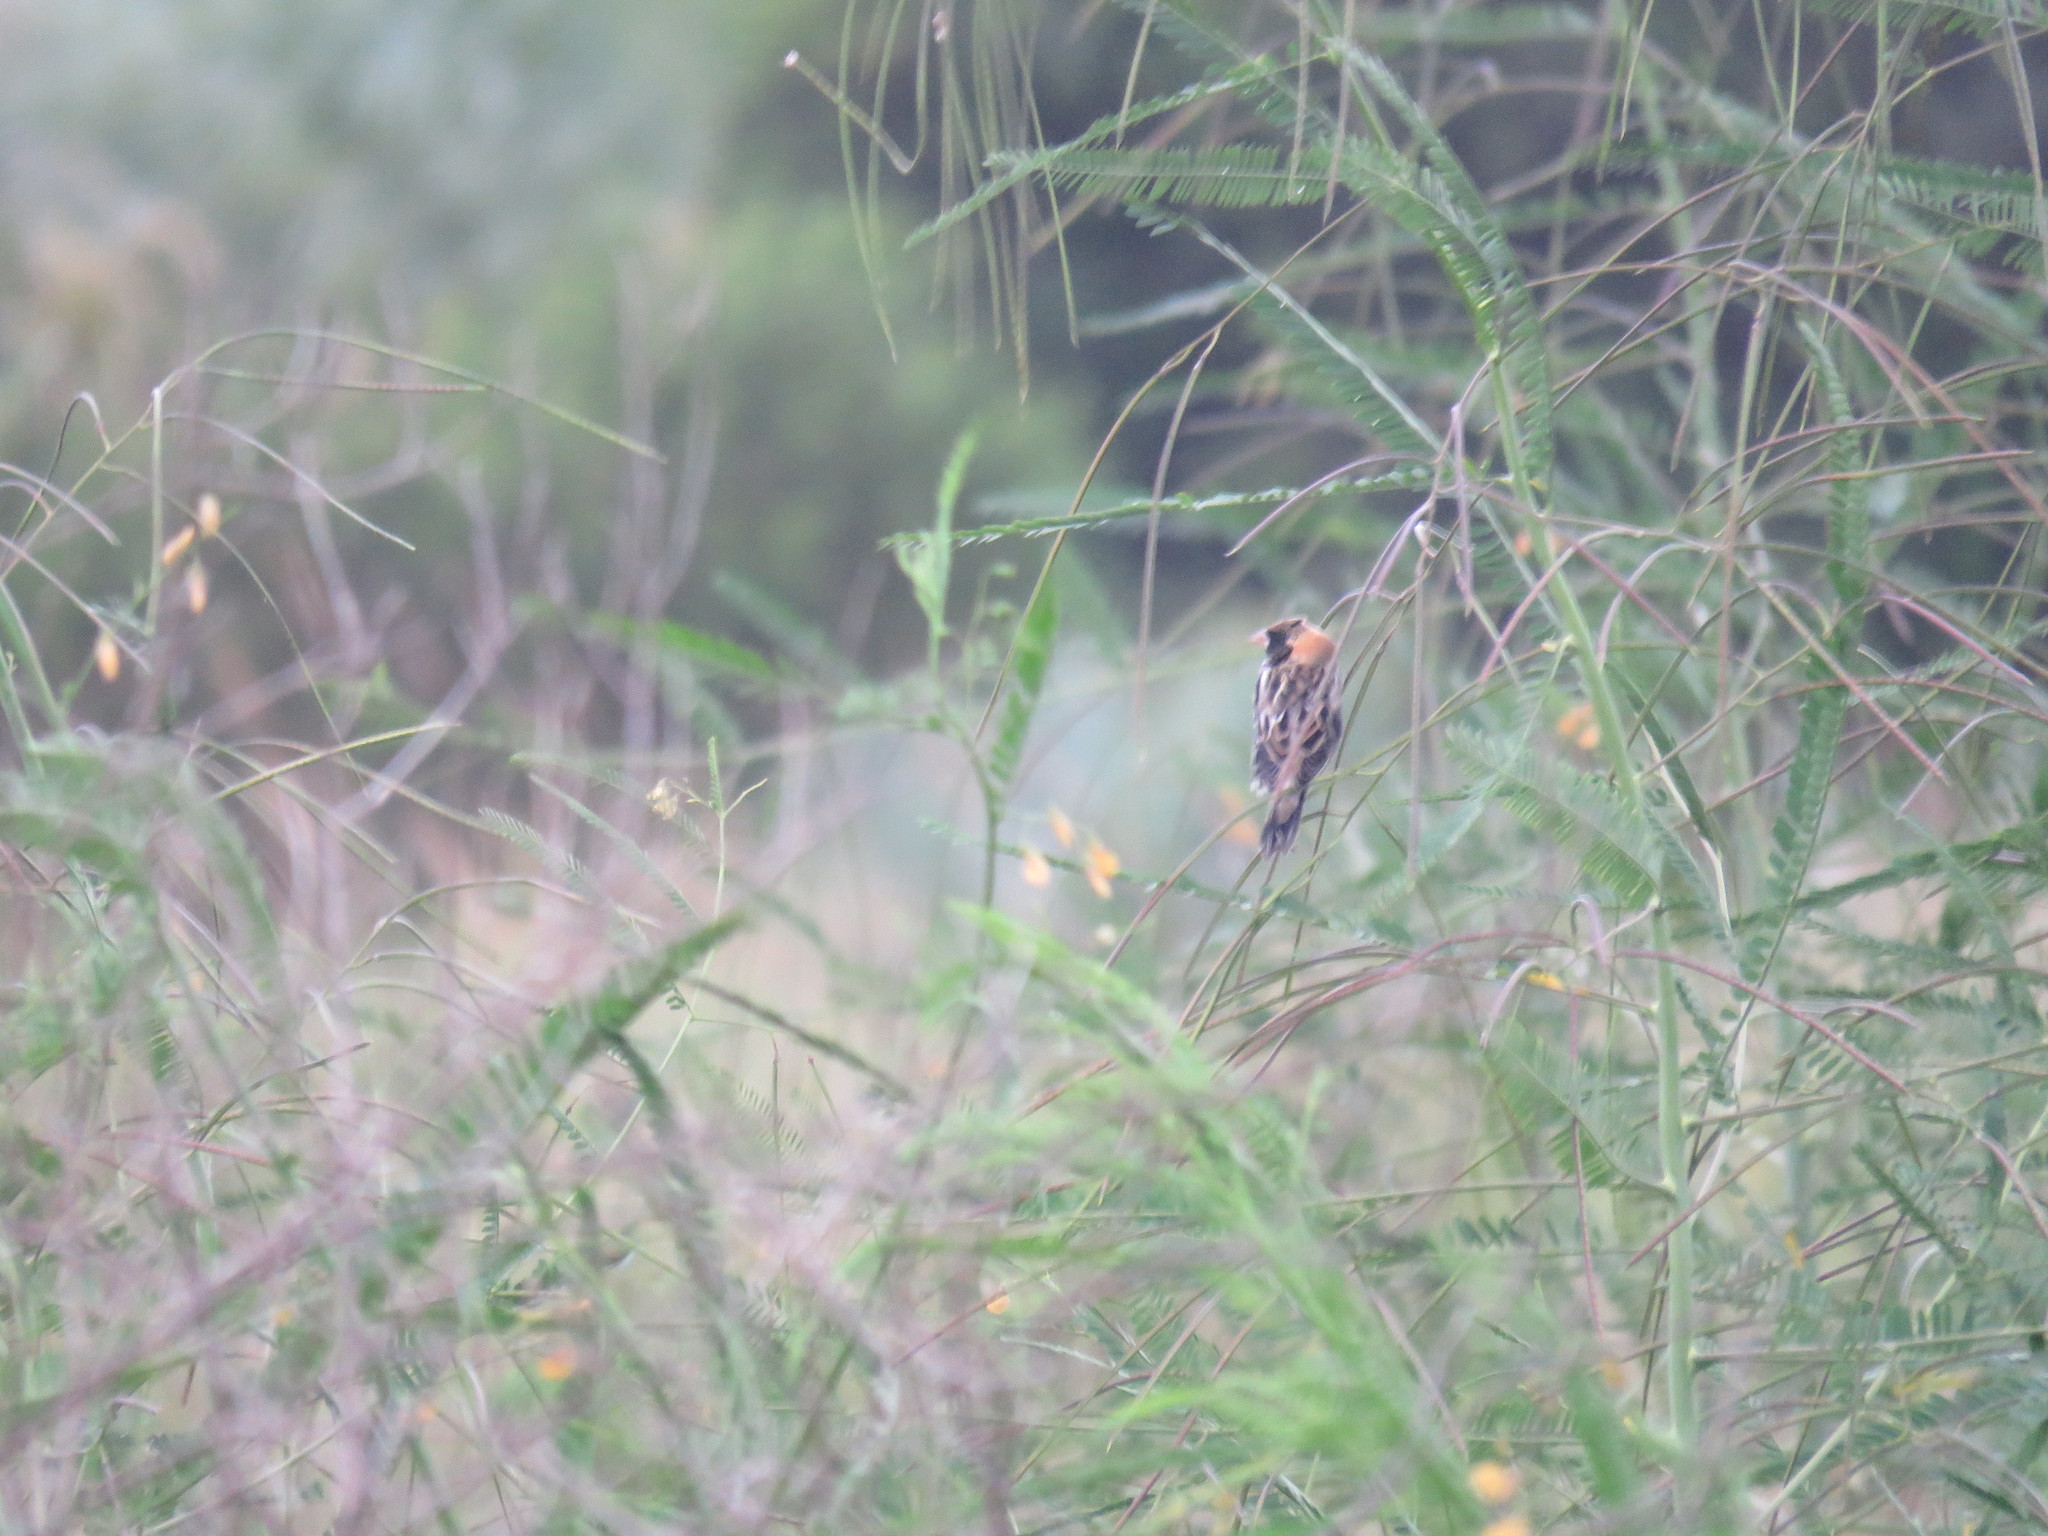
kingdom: Animalia
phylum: Chordata
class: Aves
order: Passeriformes
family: Icteridae
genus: Dolichonyx
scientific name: Dolichonyx oryzivorus
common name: Bobolink
